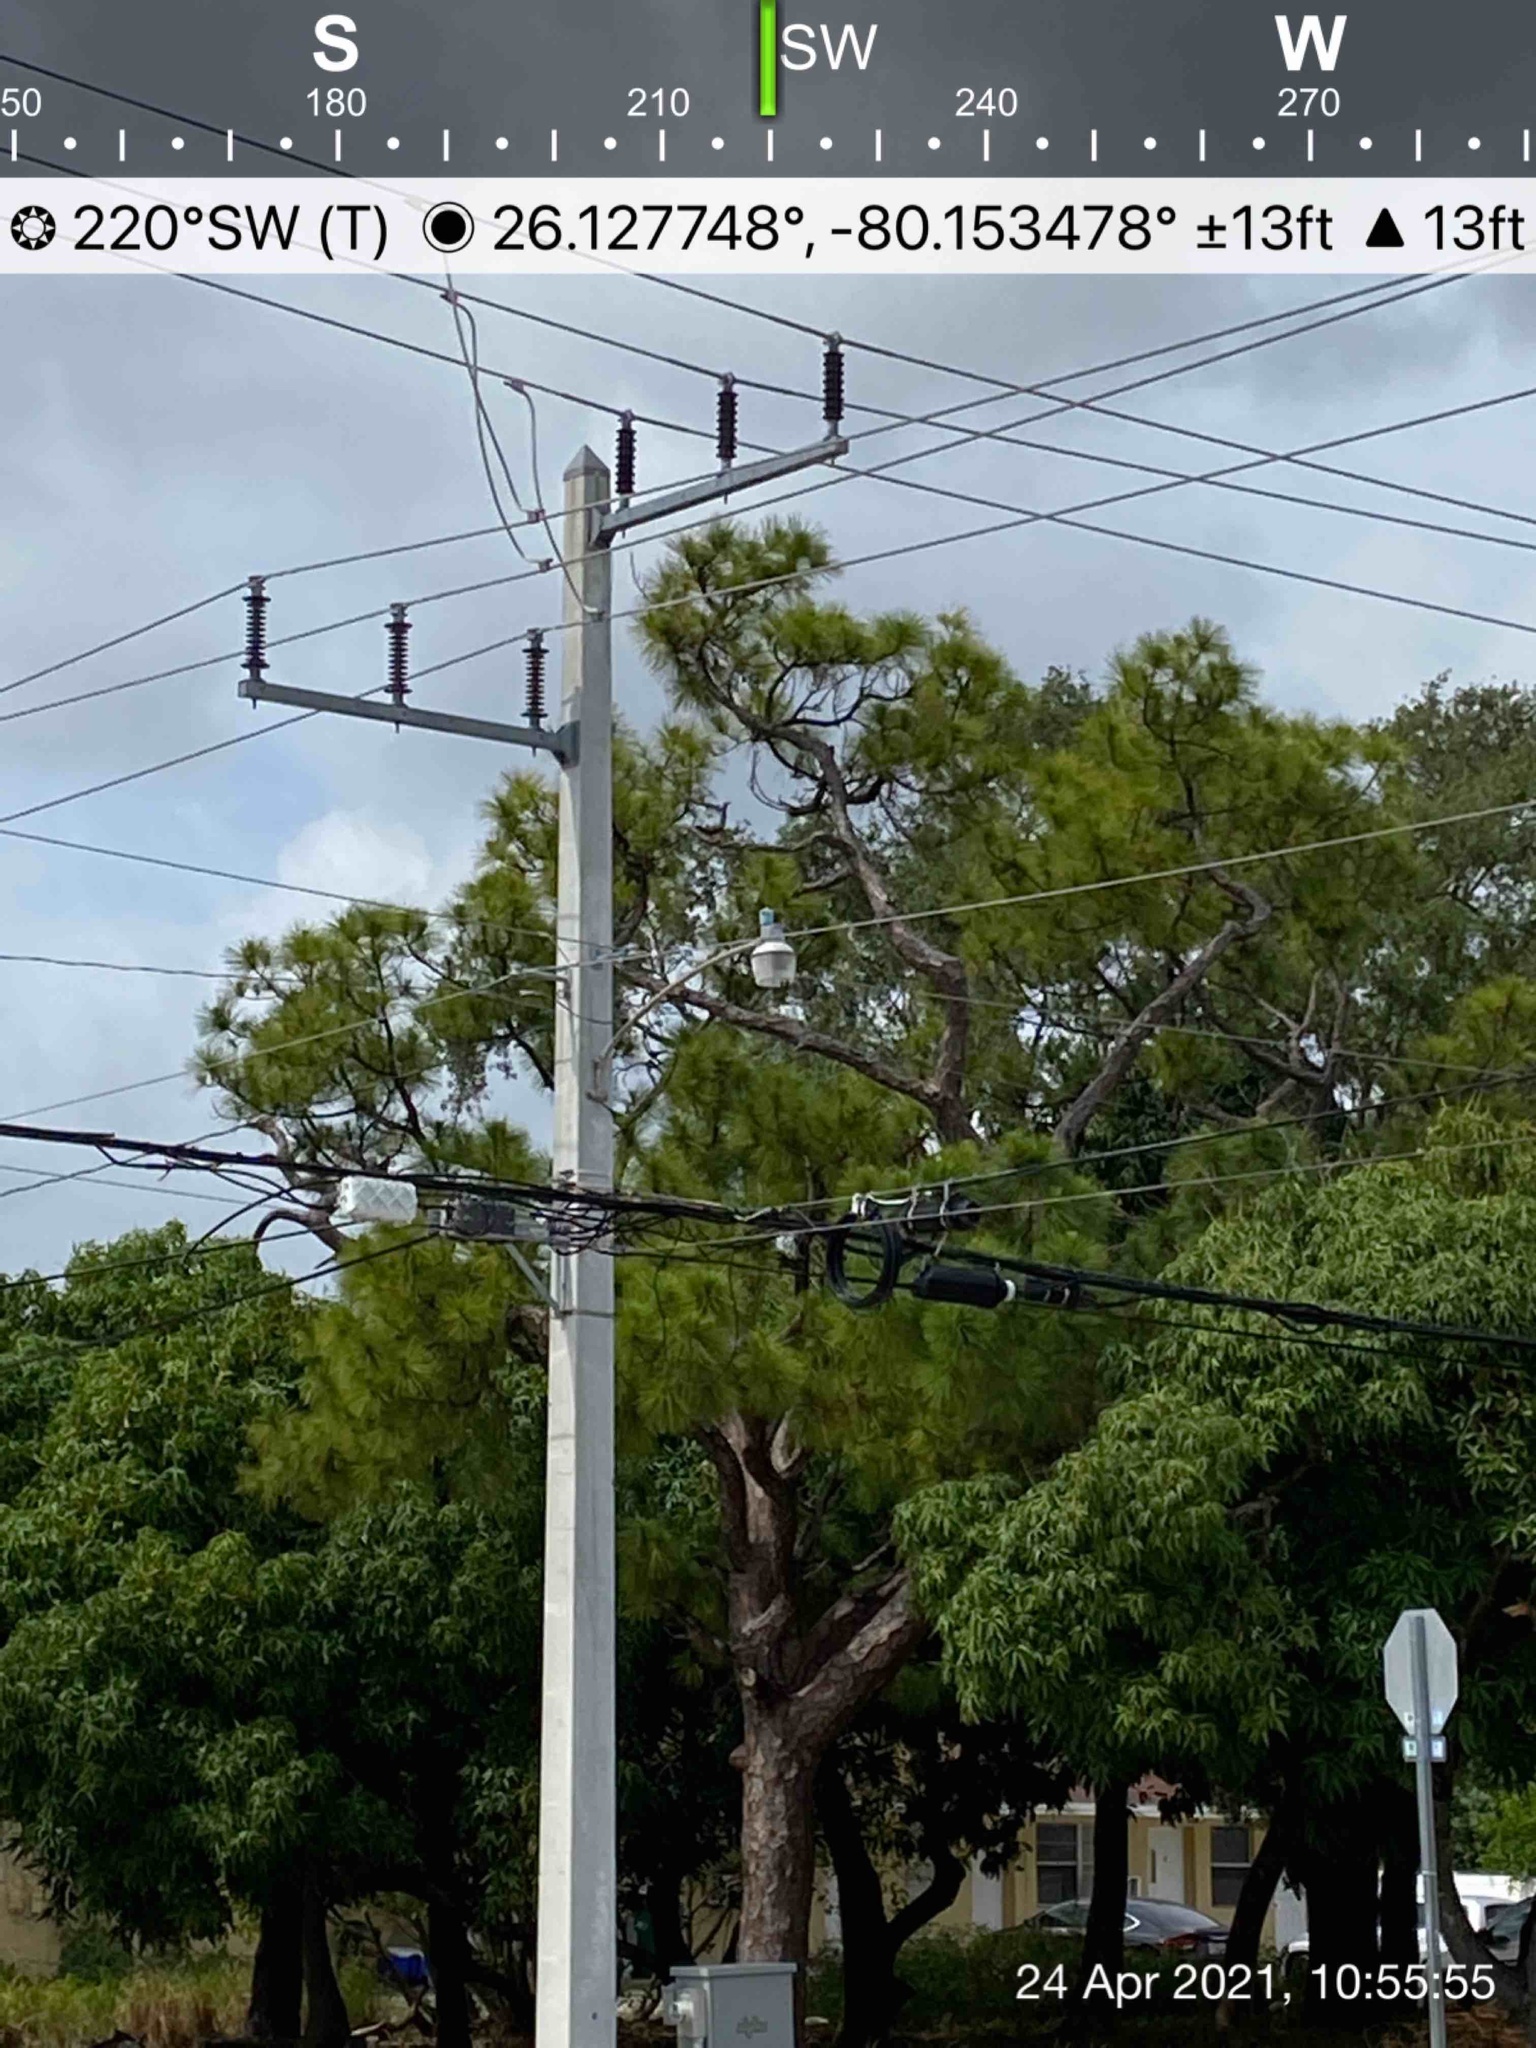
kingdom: Plantae
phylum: Tracheophyta
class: Pinopsida
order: Pinales
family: Pinaceae
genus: Pinus
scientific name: Pinus elliottii
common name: Slash pine
